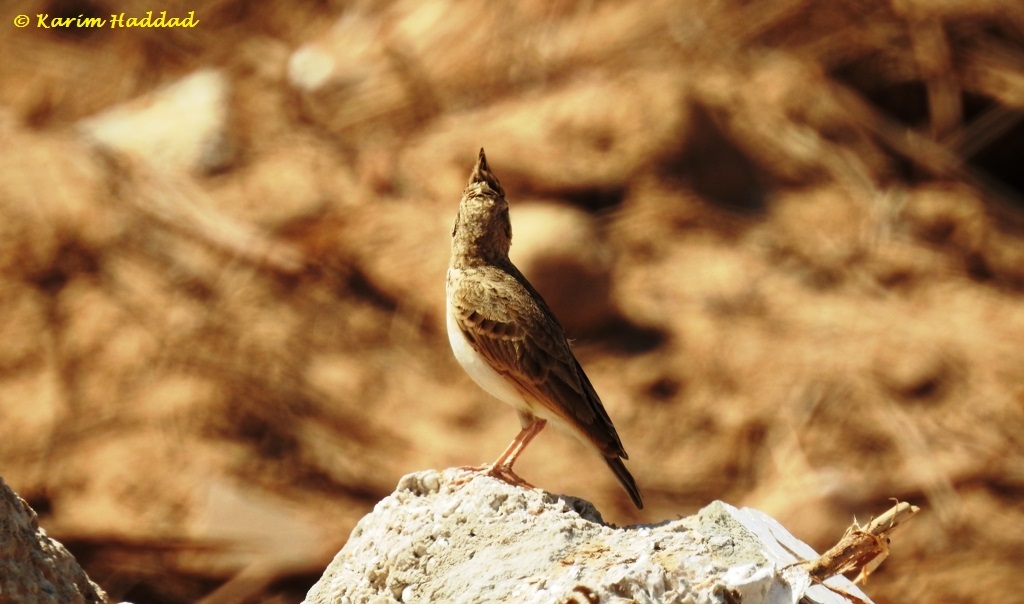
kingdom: Animalia
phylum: Chordata
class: Aves
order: Passeriformes
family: Alaudidae
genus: Galerida
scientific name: Galerida cristata
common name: Crested lark
